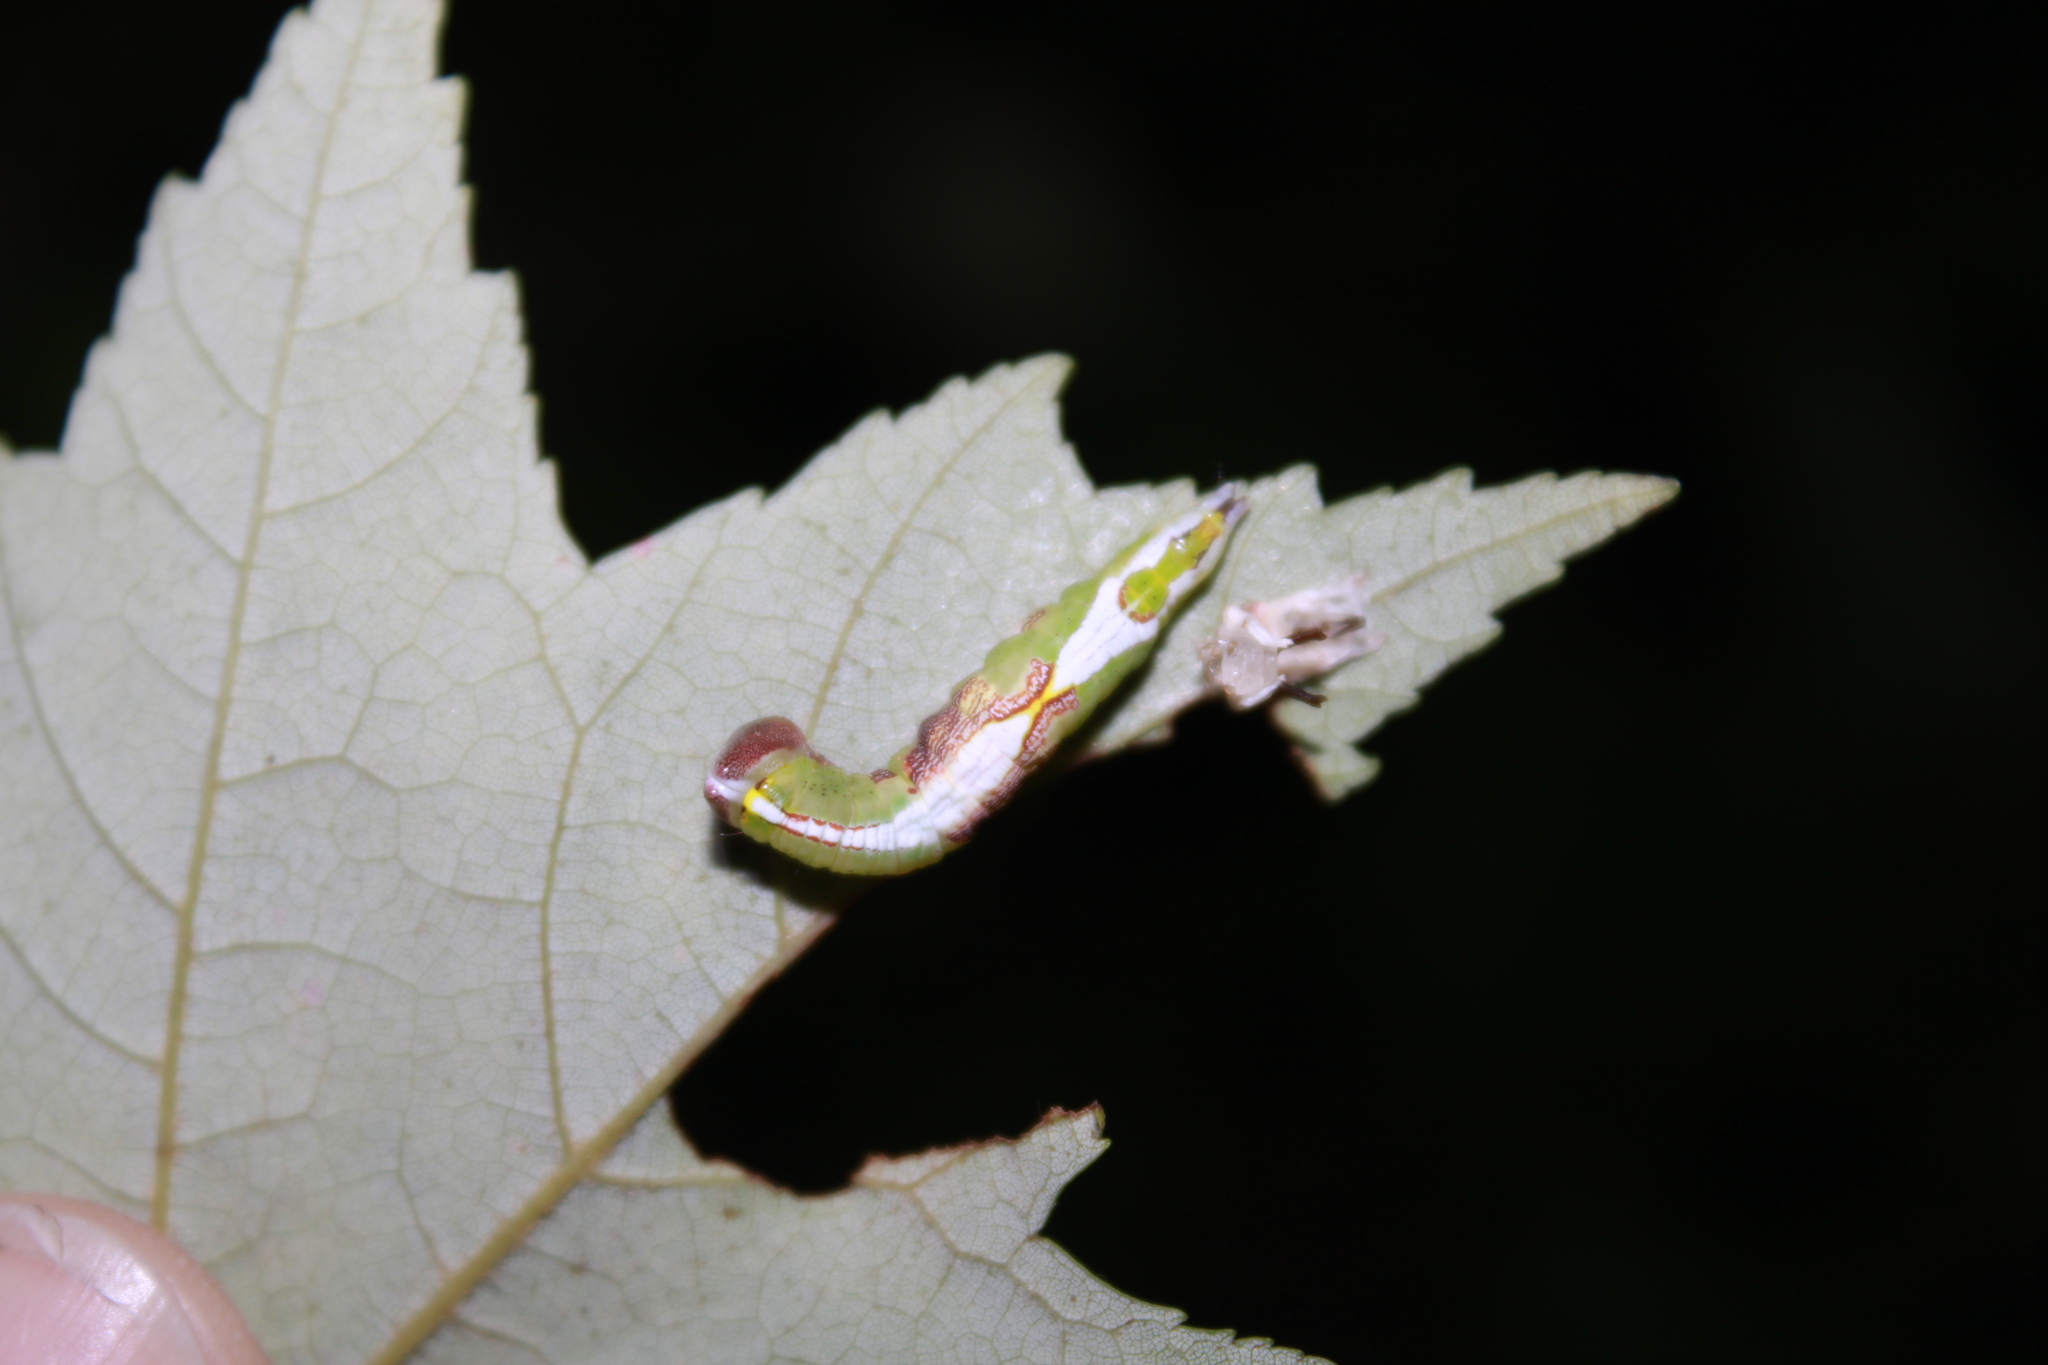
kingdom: Animalia
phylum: Arthropoda
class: Insecta
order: Lepidoptera
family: Notodontidae
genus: Disphragis
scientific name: Disphragis Cecrita biundata
